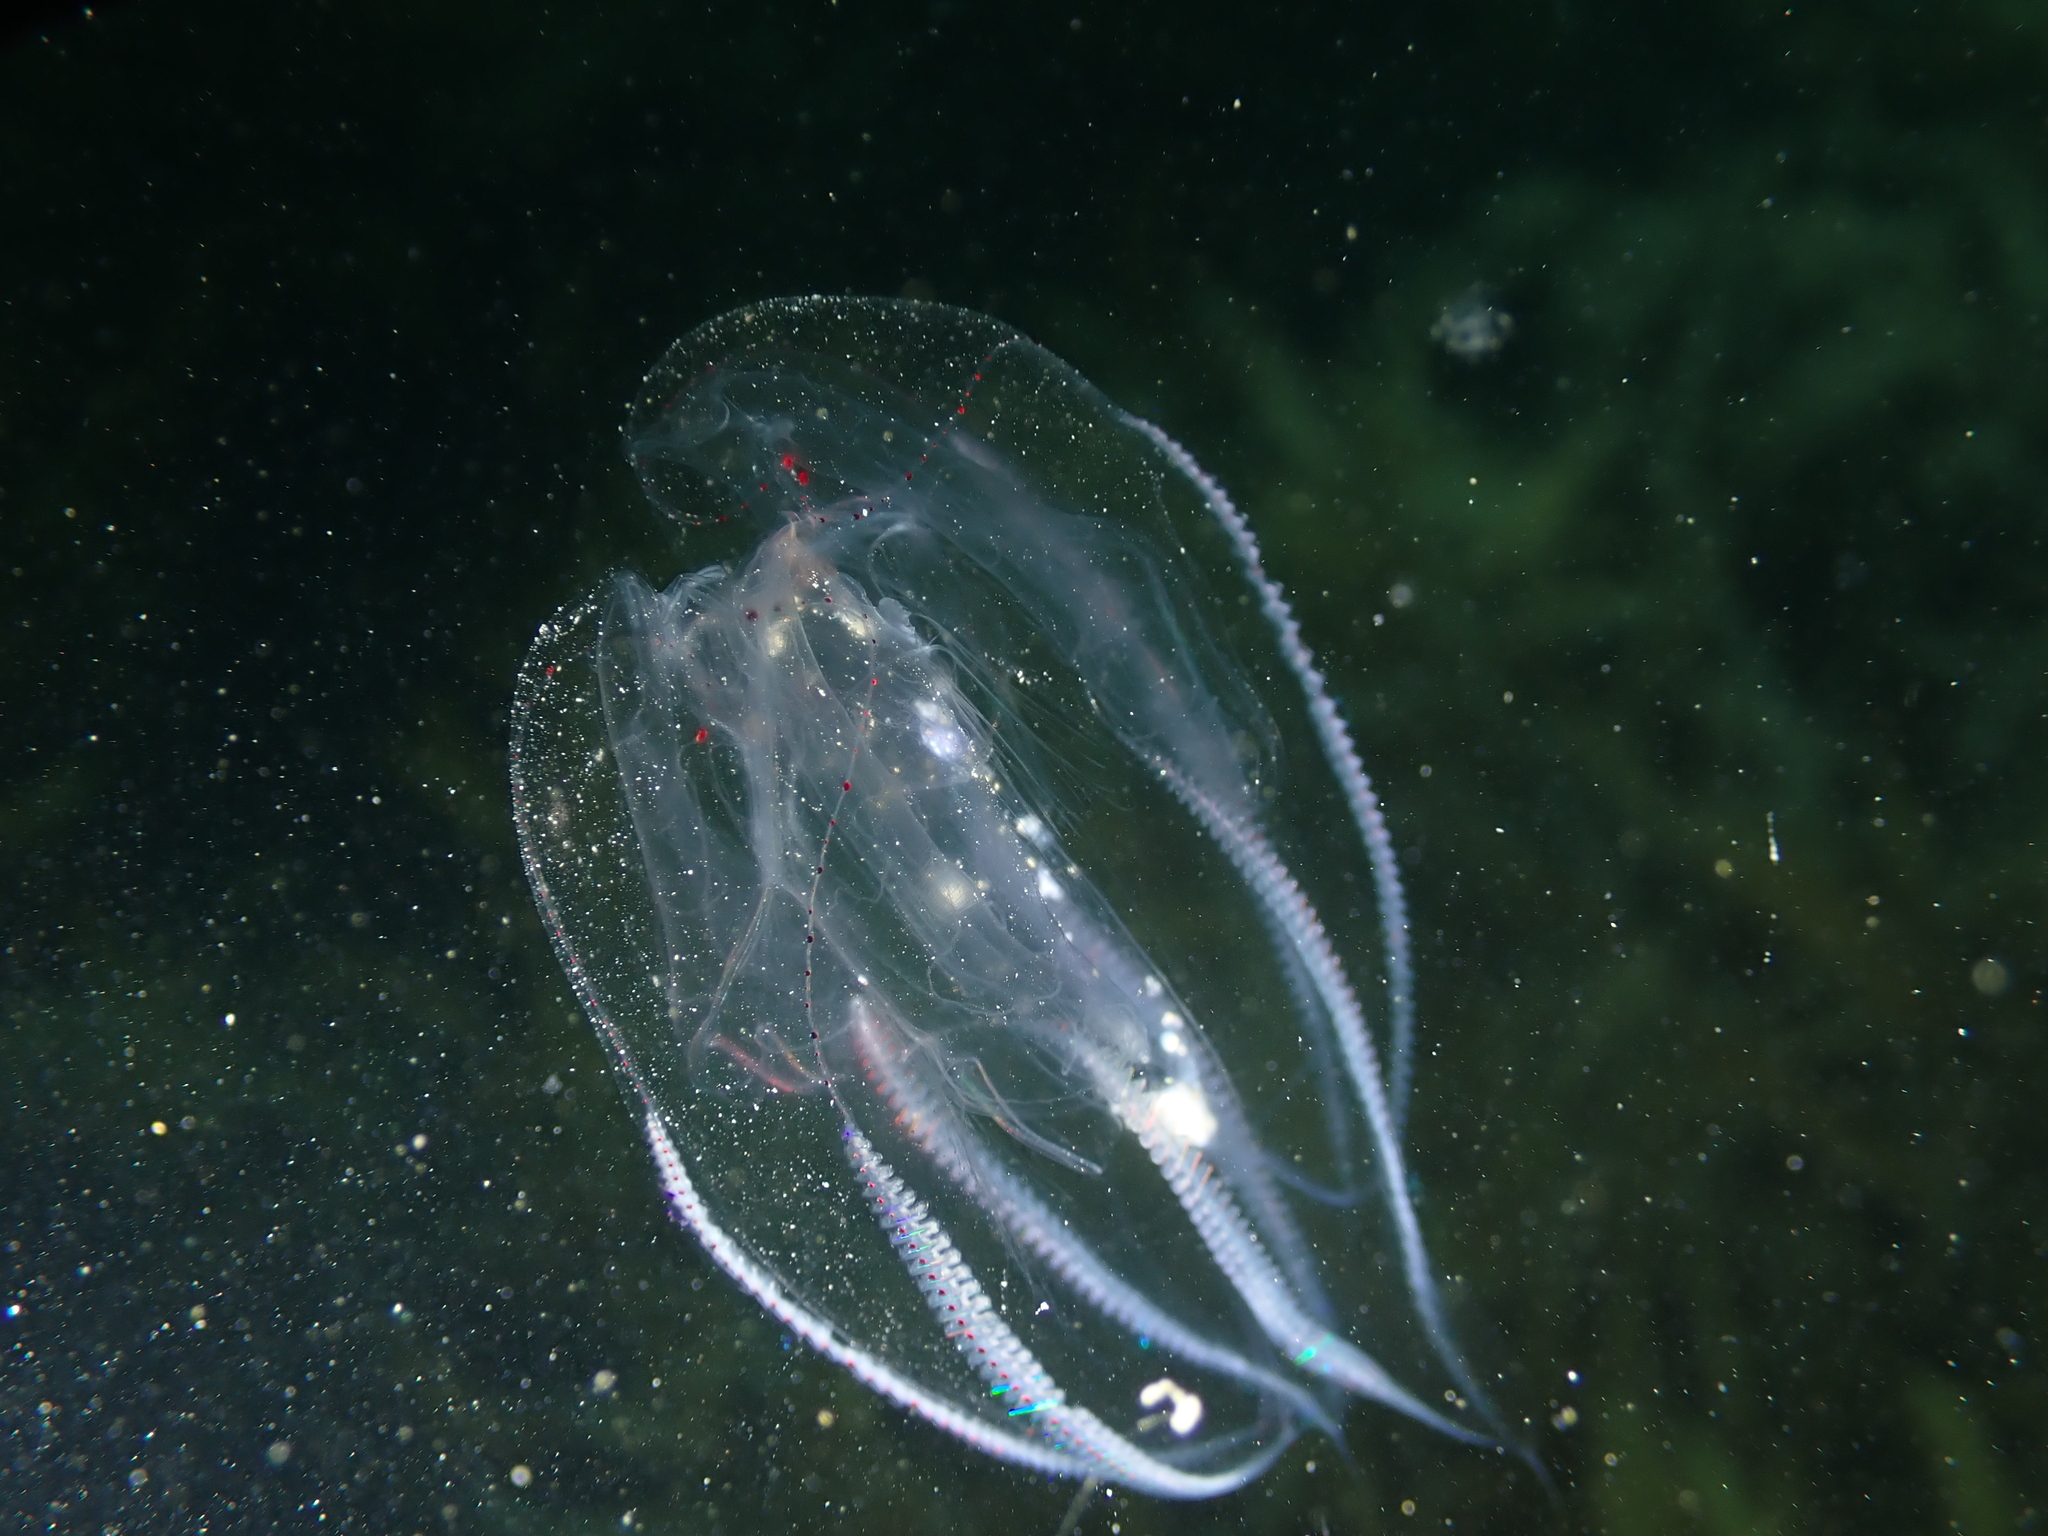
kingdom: Animalia
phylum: Ctenophora
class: Tentaculata
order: Lobata
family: Eurhamphaeidae
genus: Eurhamphaea
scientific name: Eurhamphaea vexilligera
